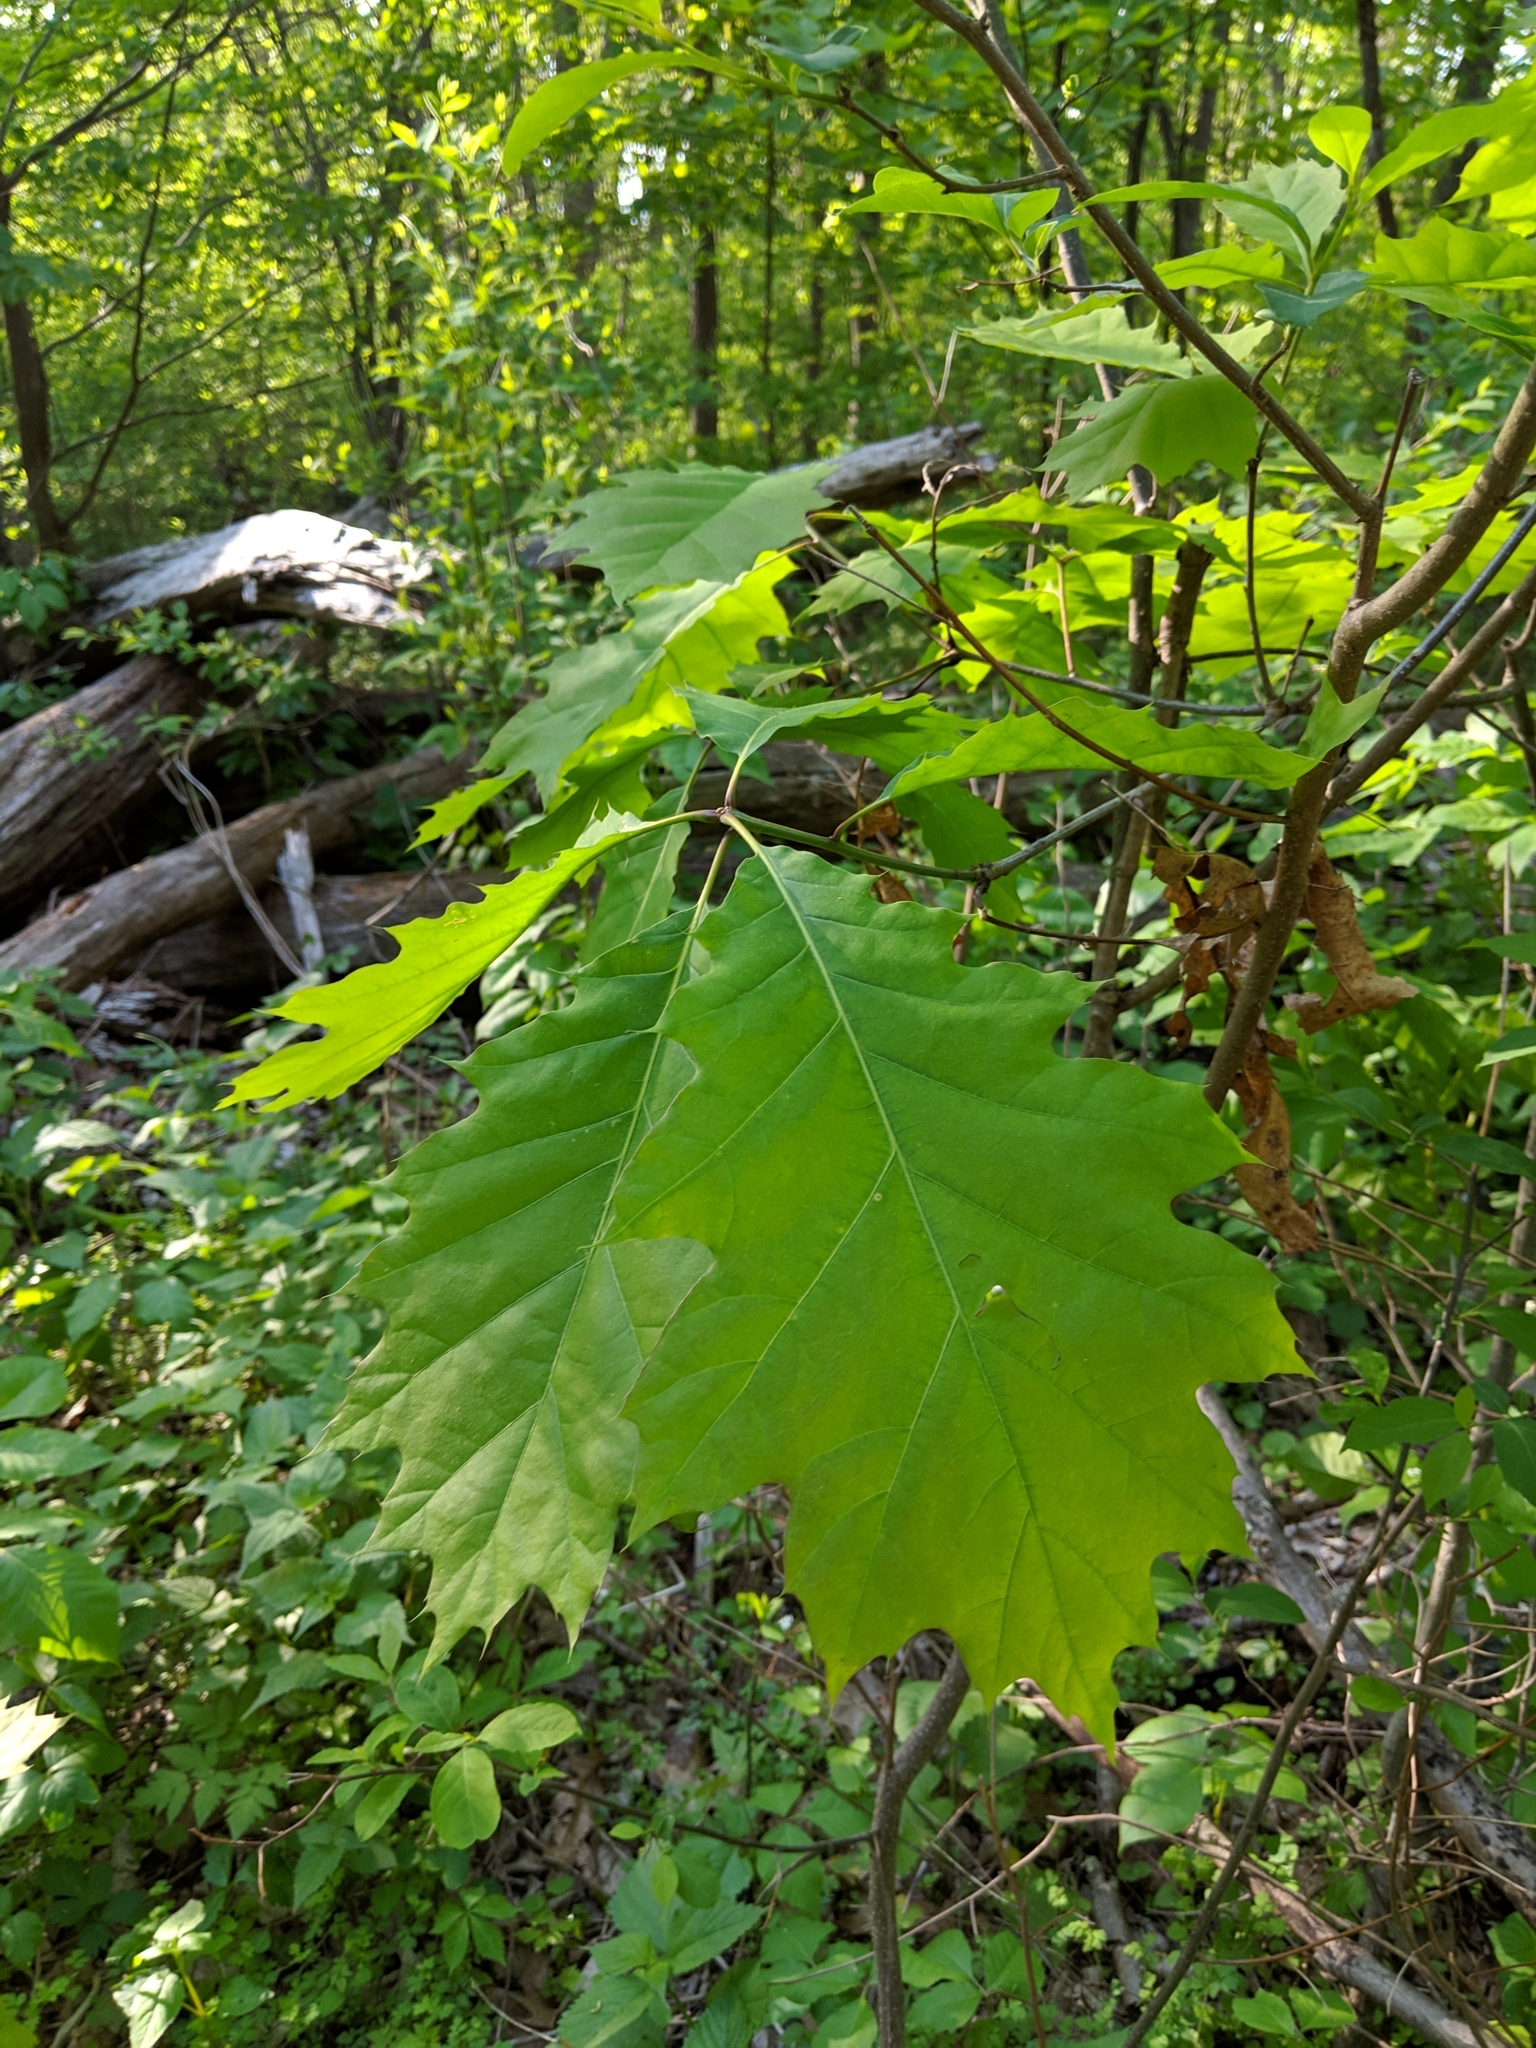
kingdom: Plantae
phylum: Tracheophyta
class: Magnoliopsida
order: Fagales
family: Fagaceae
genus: Quercus
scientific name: Quercus rubra
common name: Red oak
